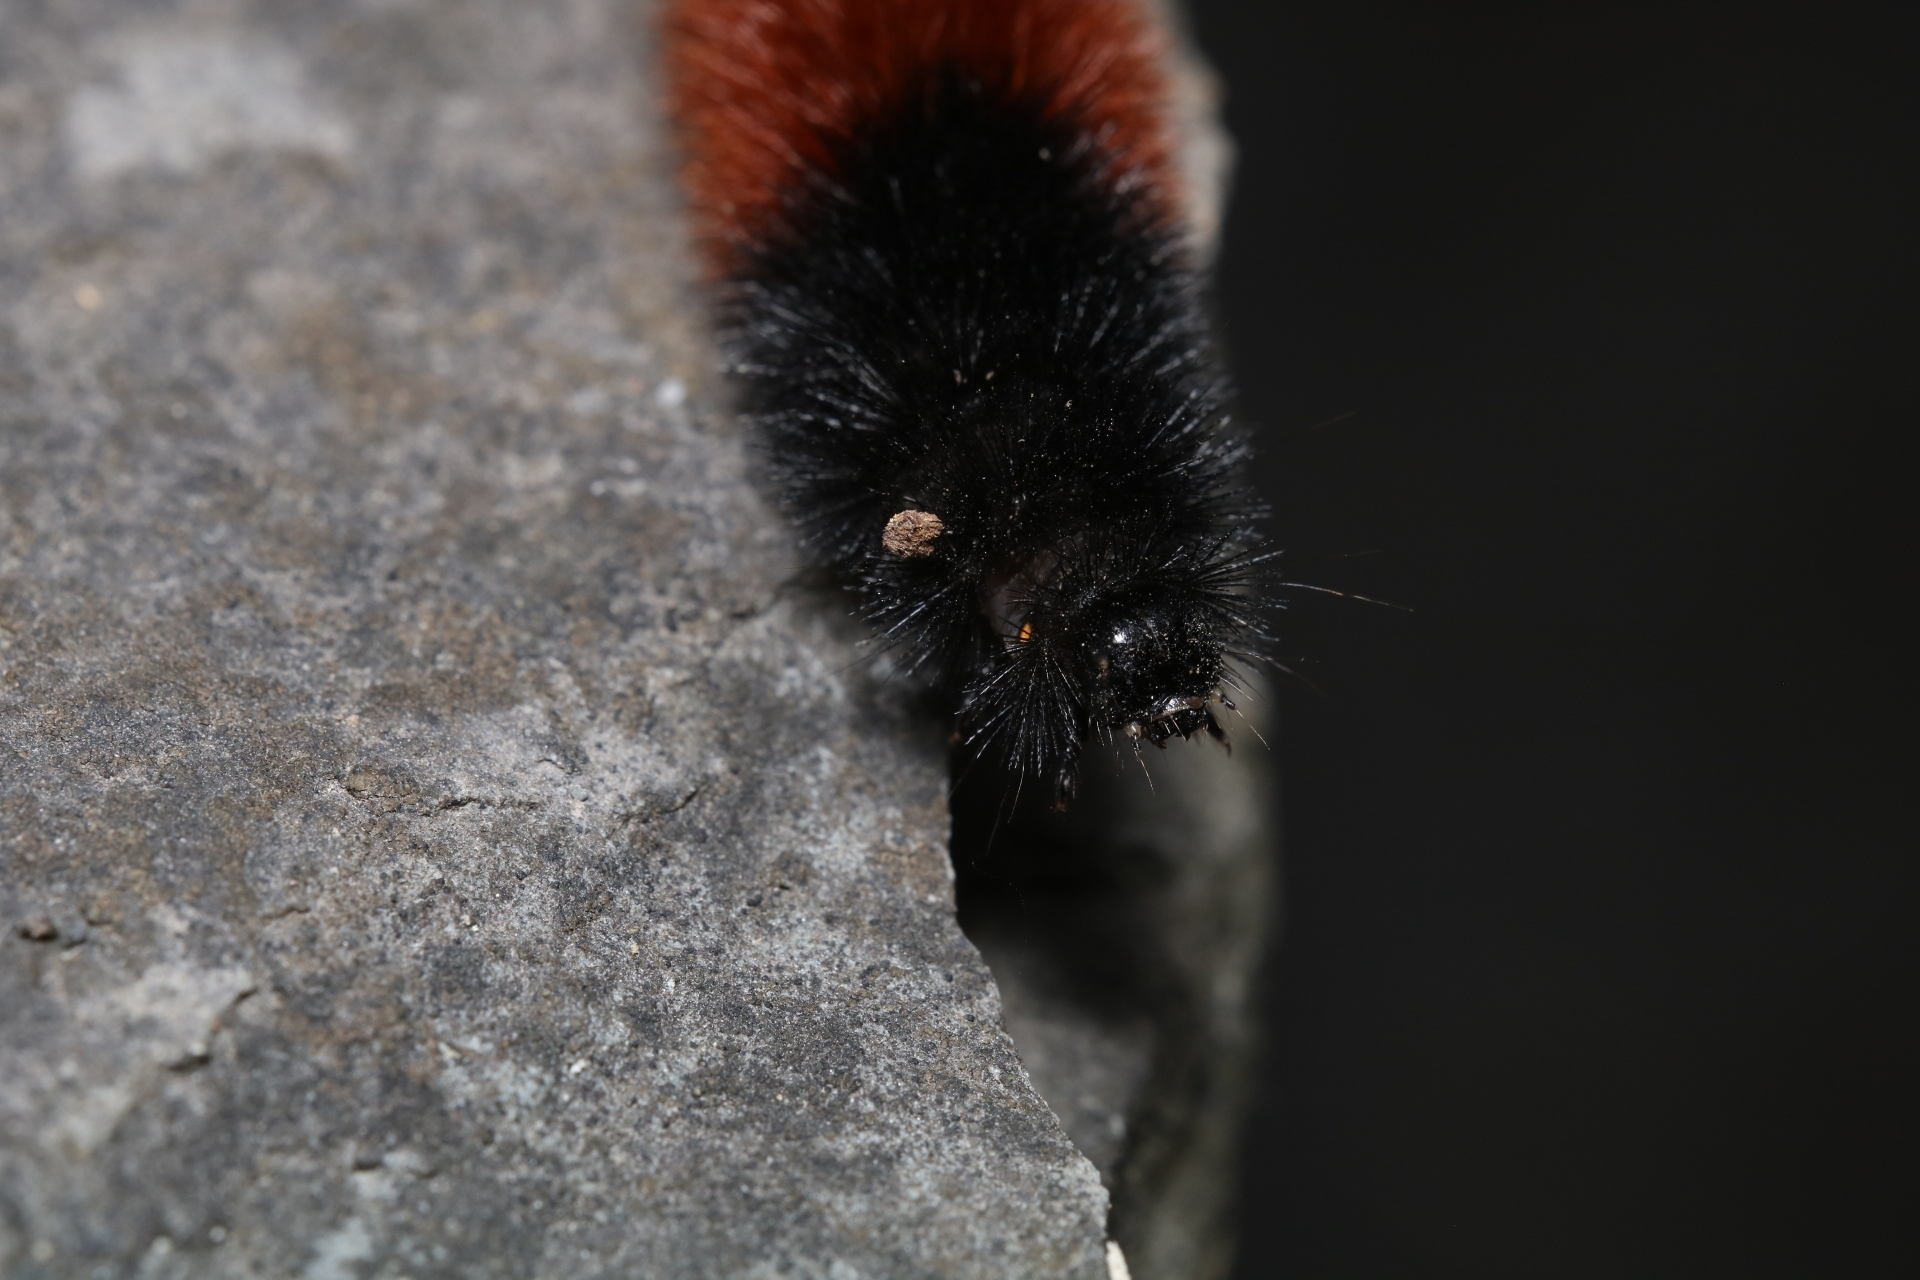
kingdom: Animalia
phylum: Arthropoda
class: Insecta
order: Lepidoptera
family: Erebidae
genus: Pyrrharctia
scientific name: Pyrrharctia isabella
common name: Isabella tiger moth
